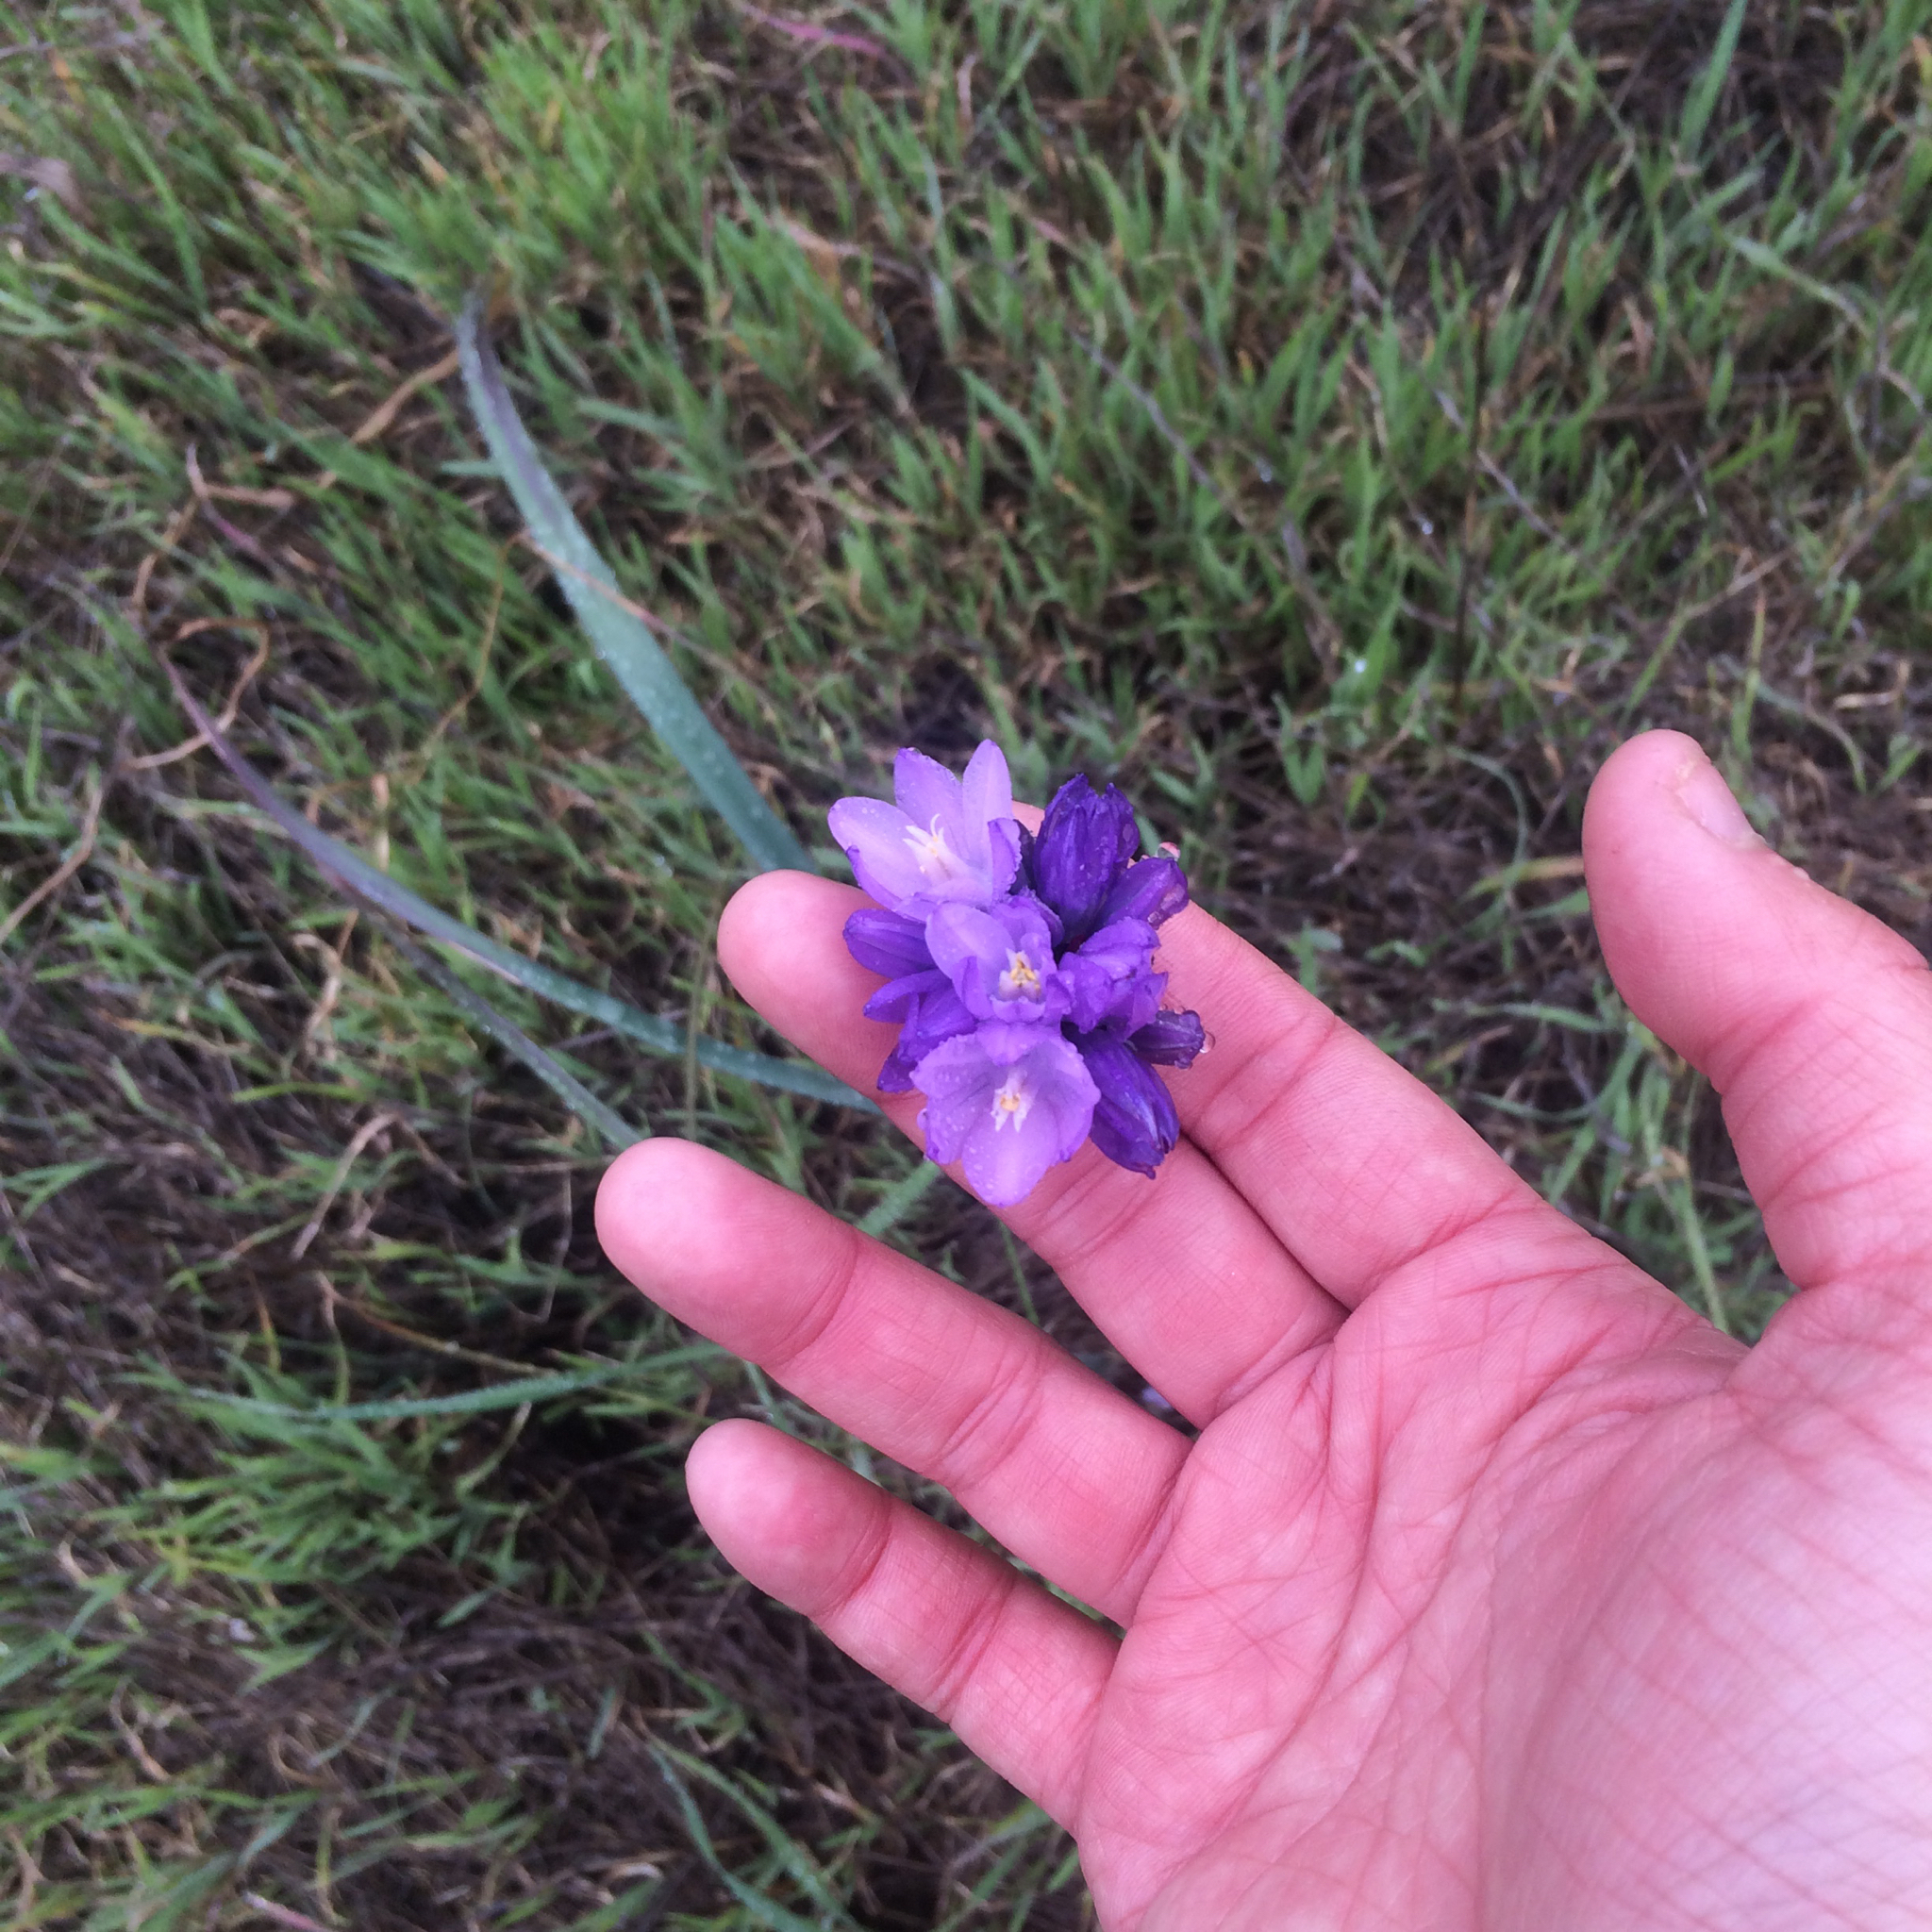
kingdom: Plantae
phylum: Tracheophyta
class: Liliopsida
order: Asparagales
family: Asparagaceae
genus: Dipterostemon
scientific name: Dipterostemon capitatus
